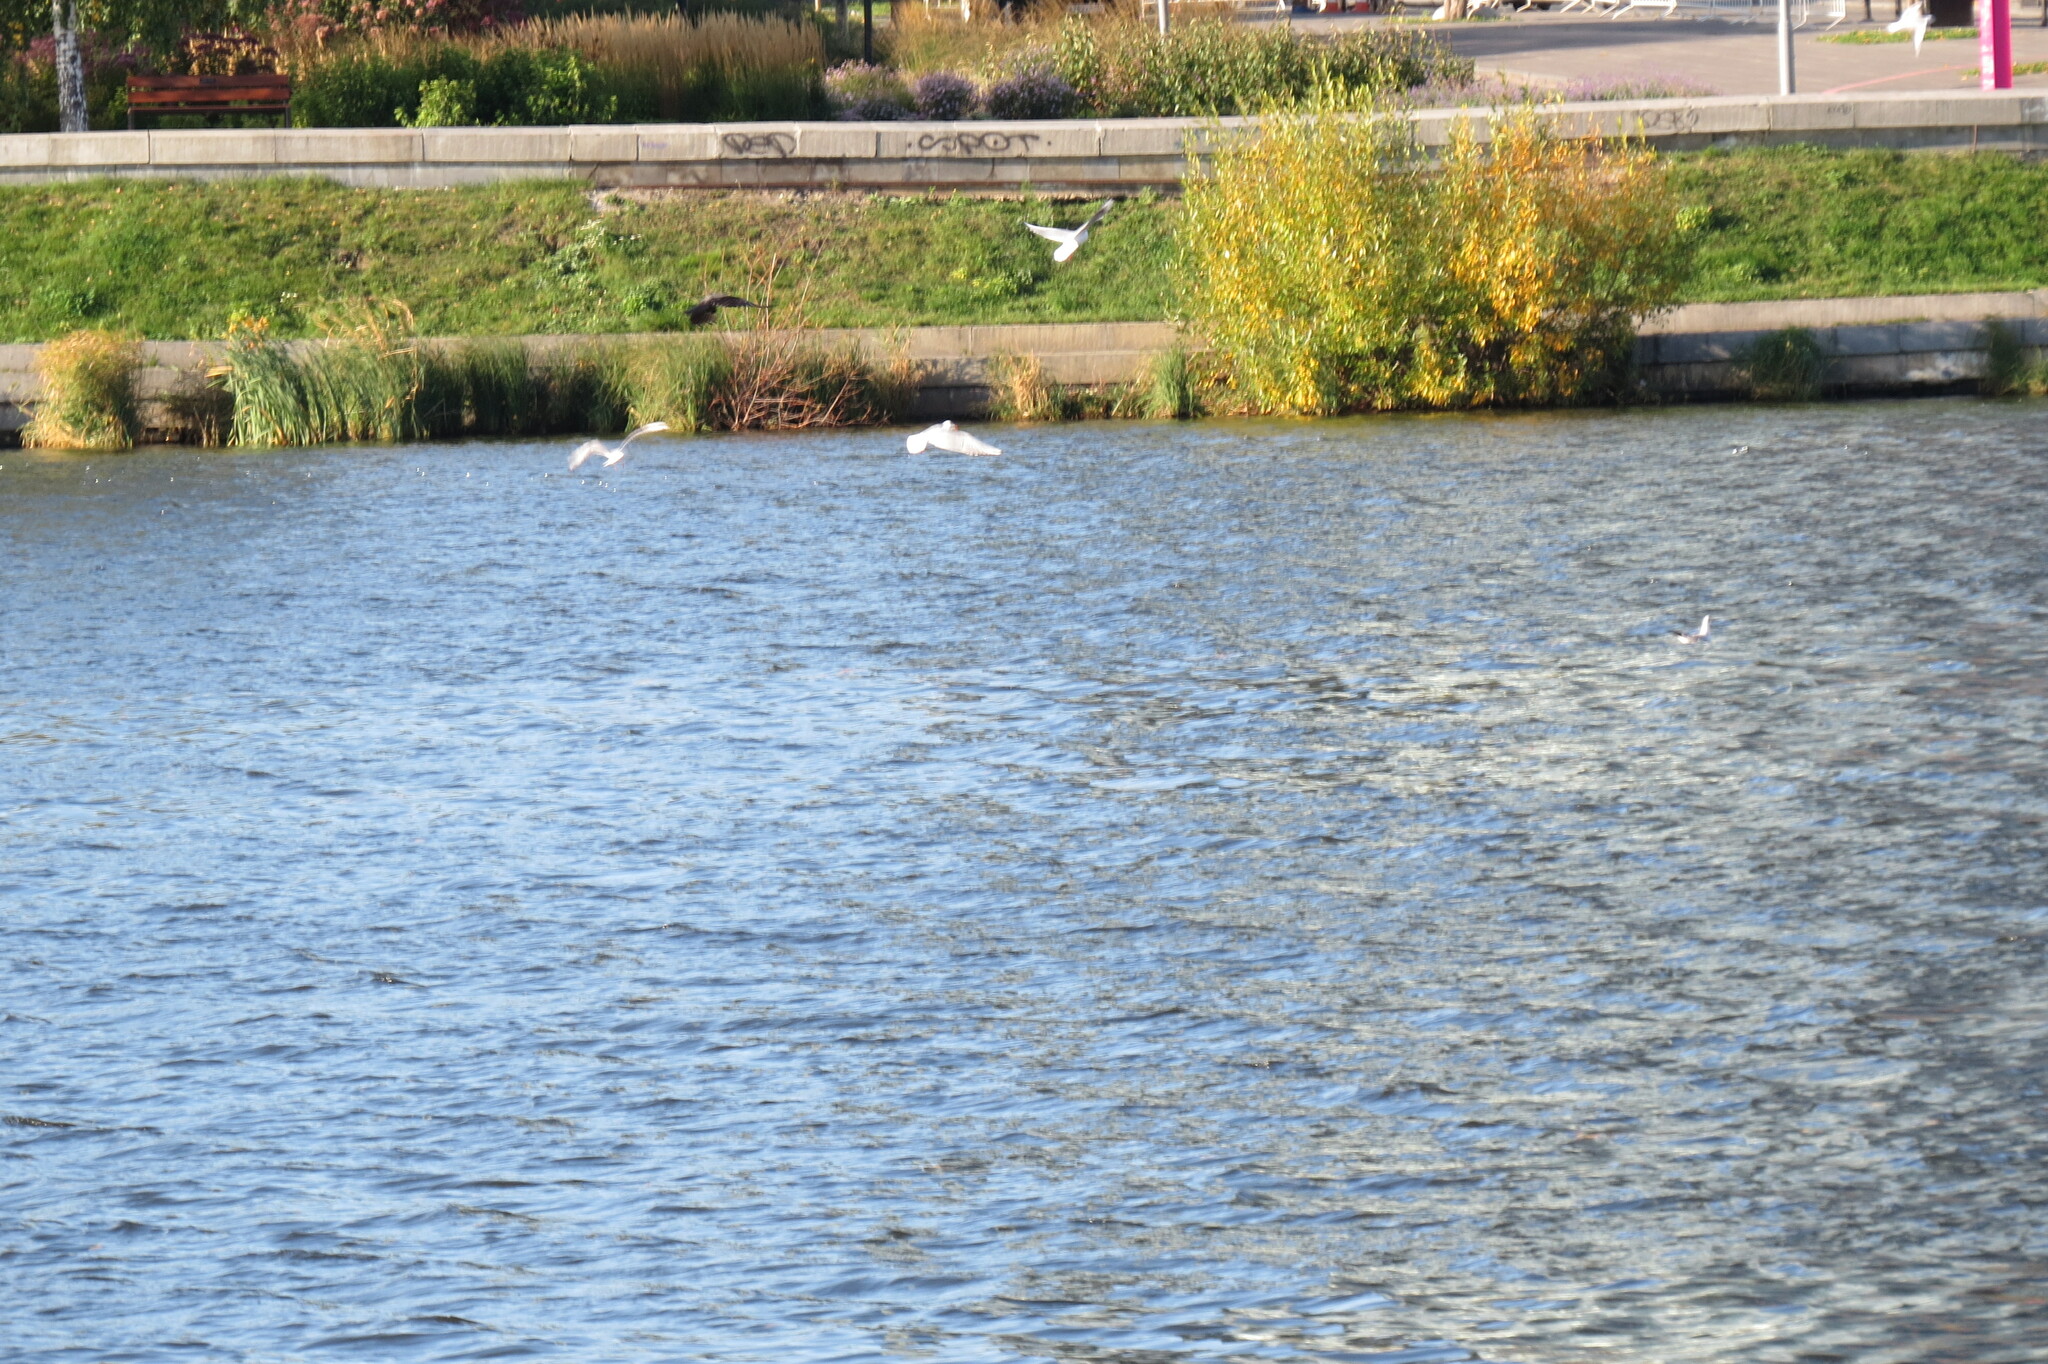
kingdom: Animalia
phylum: Chordata
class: Aves
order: Charadriiformes
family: Laridae
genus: Chroicocephalus
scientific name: Chroicocephalus ridibundus
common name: Black-headed gull
